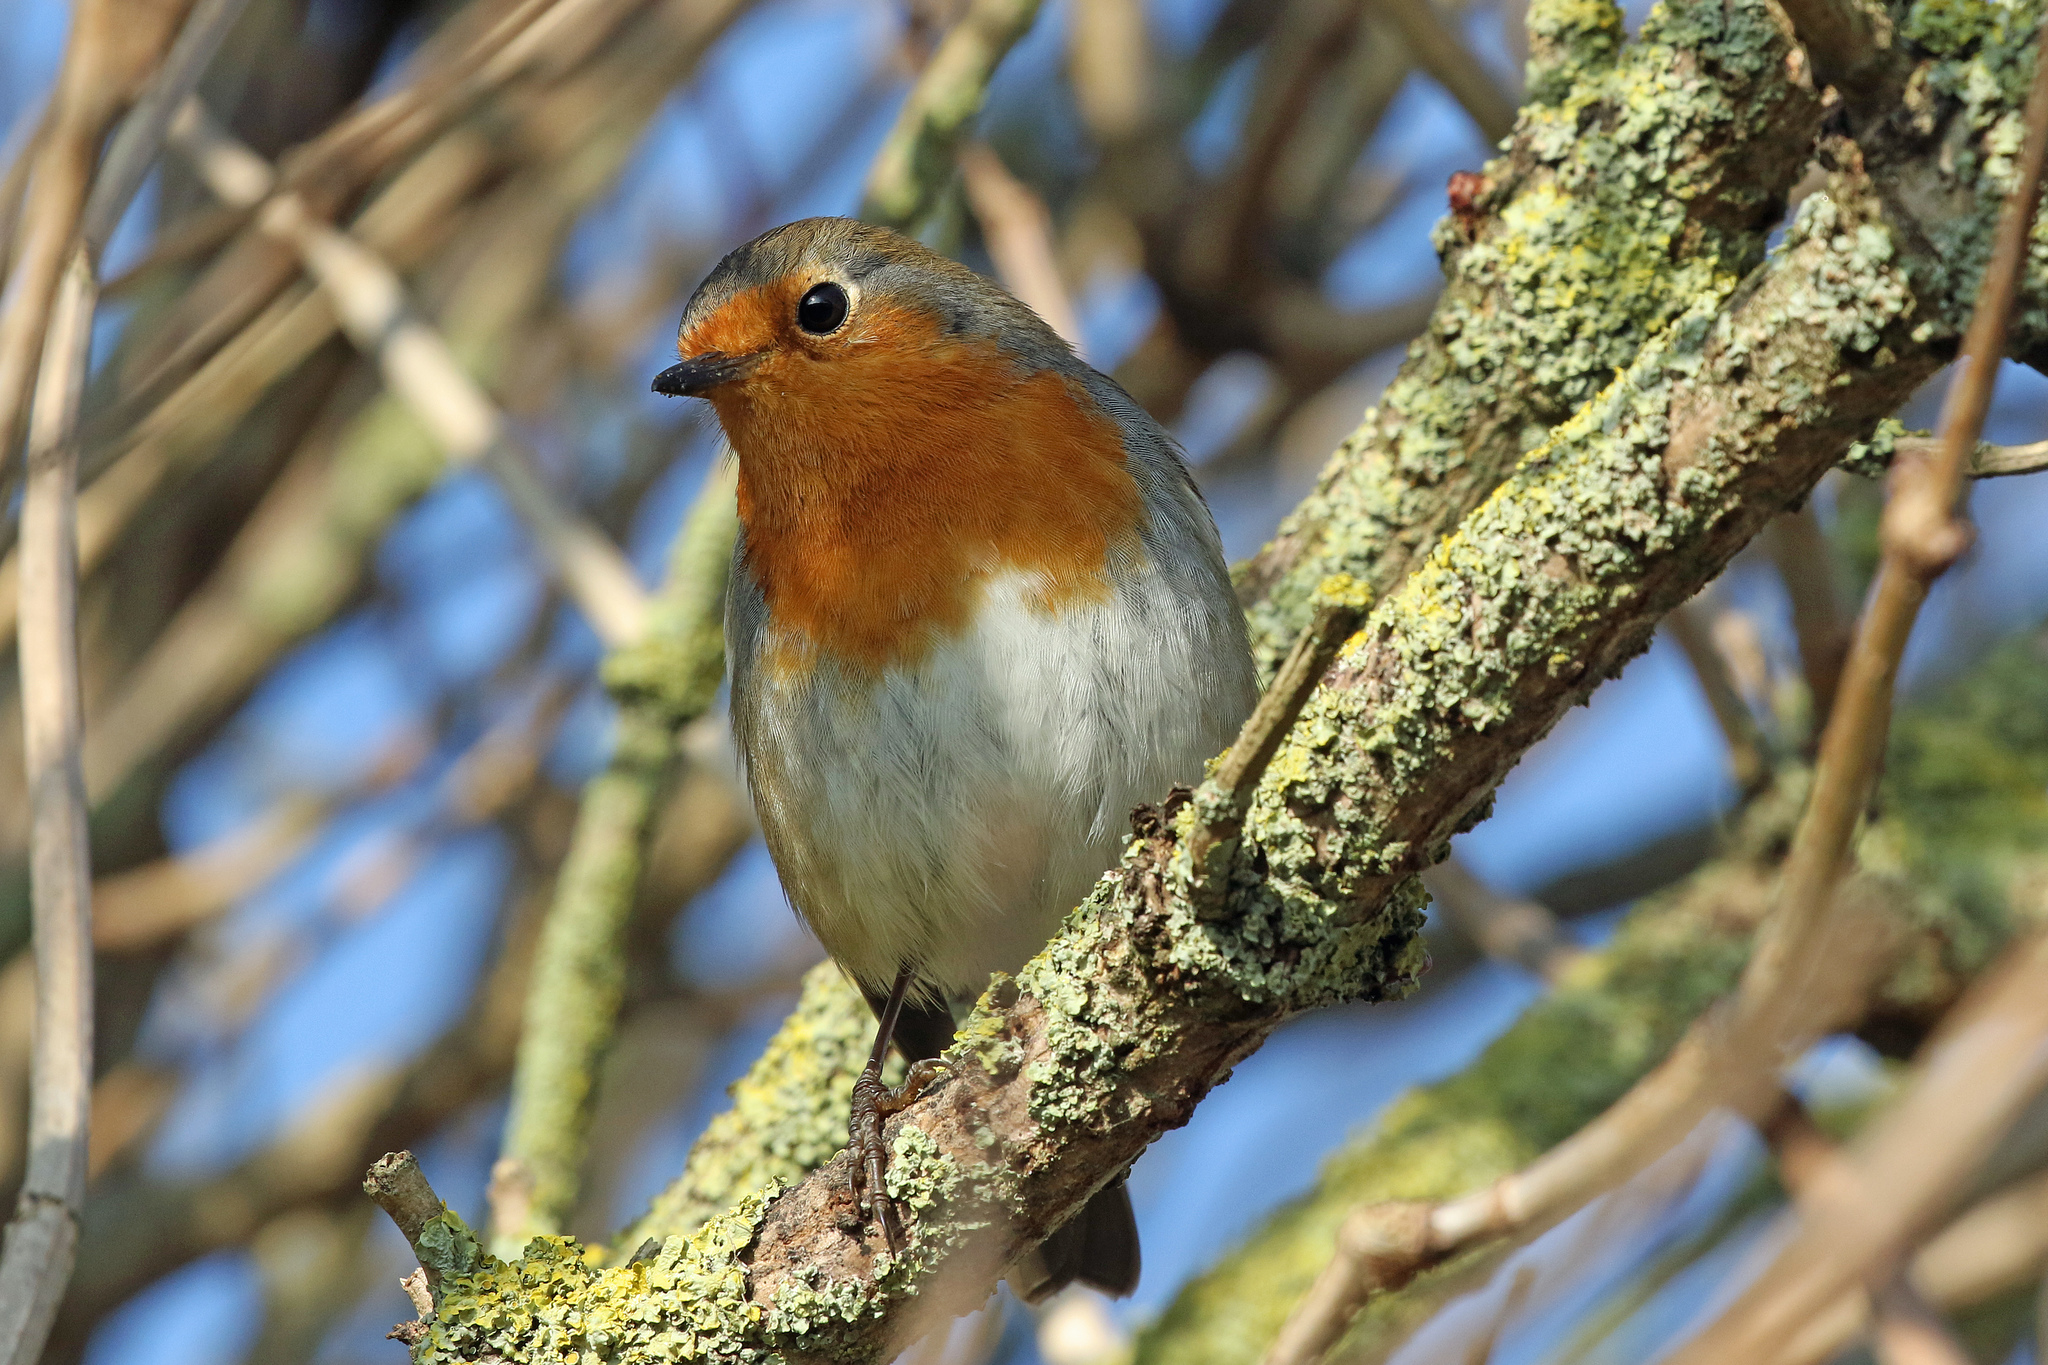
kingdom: Animalia
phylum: Chordata
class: Aves
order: Passeriformes
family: Muscicapidae
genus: Erithacus
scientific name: Erithacus rubecula
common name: European robin
